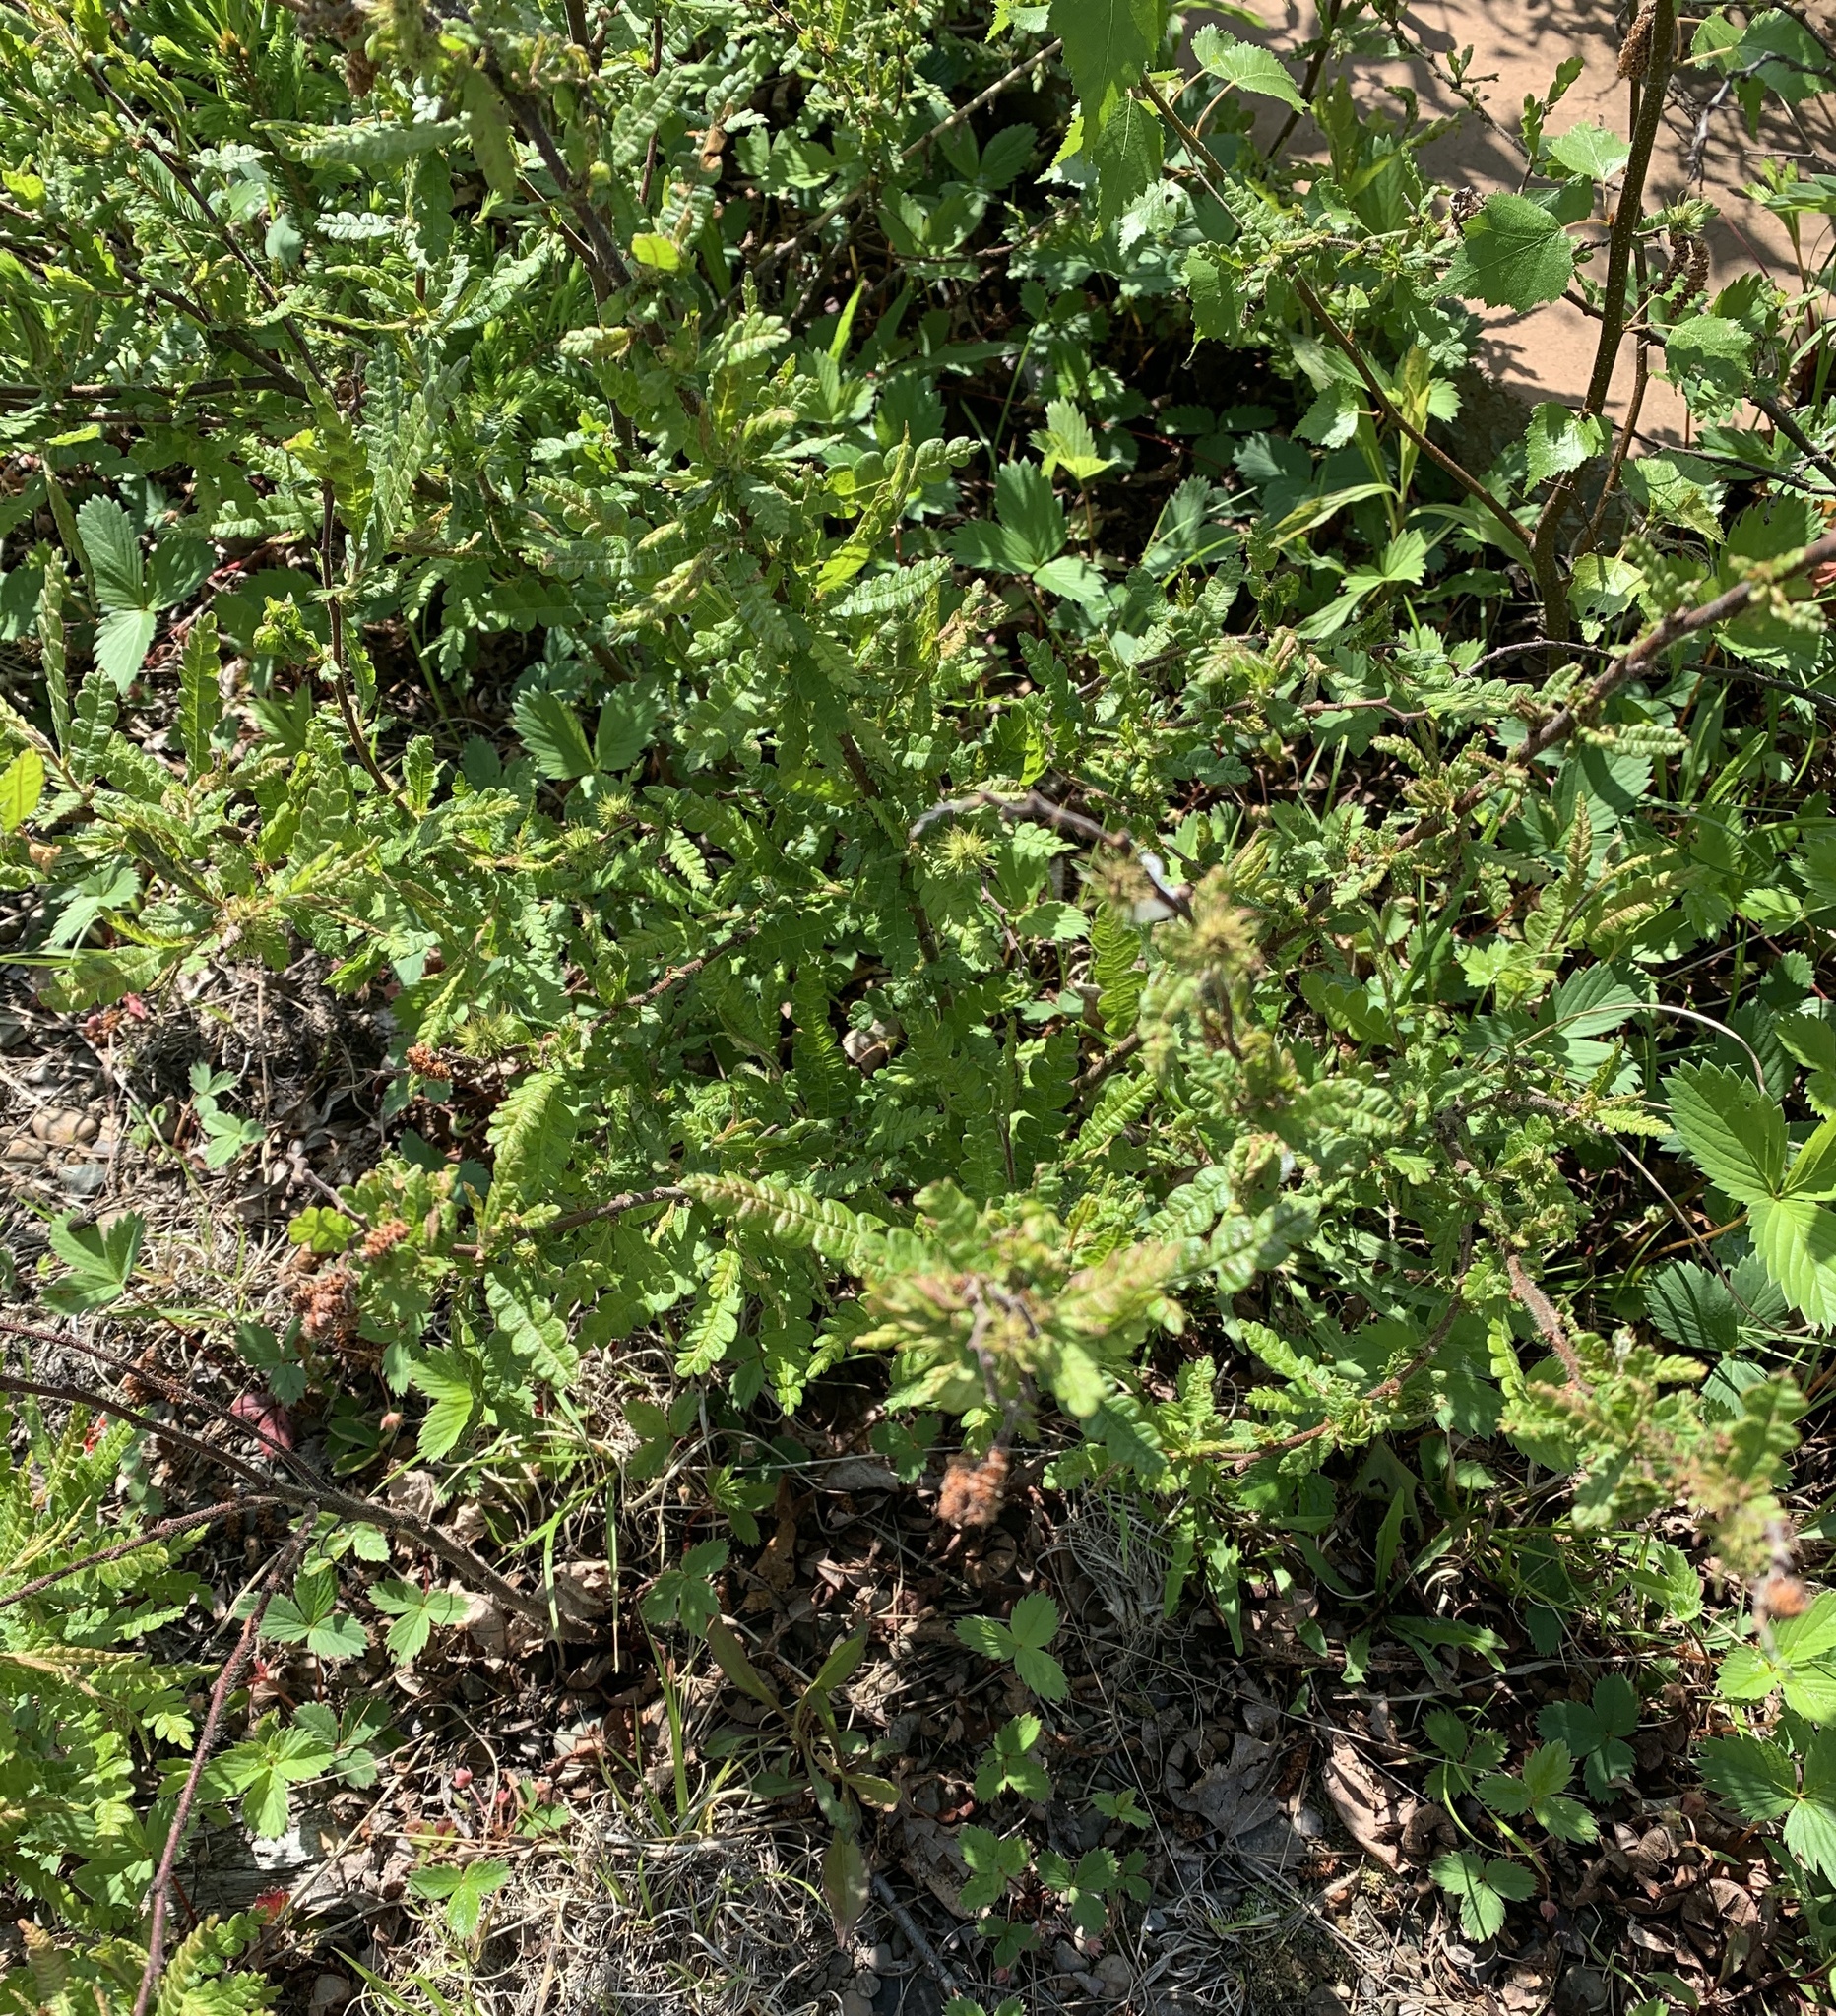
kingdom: Plantae
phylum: Tracheophyta
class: Magnoliopsida
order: Fagales
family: Myricaceae
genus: Comptonia
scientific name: Comptonia peregrina
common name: Sweet-fern
